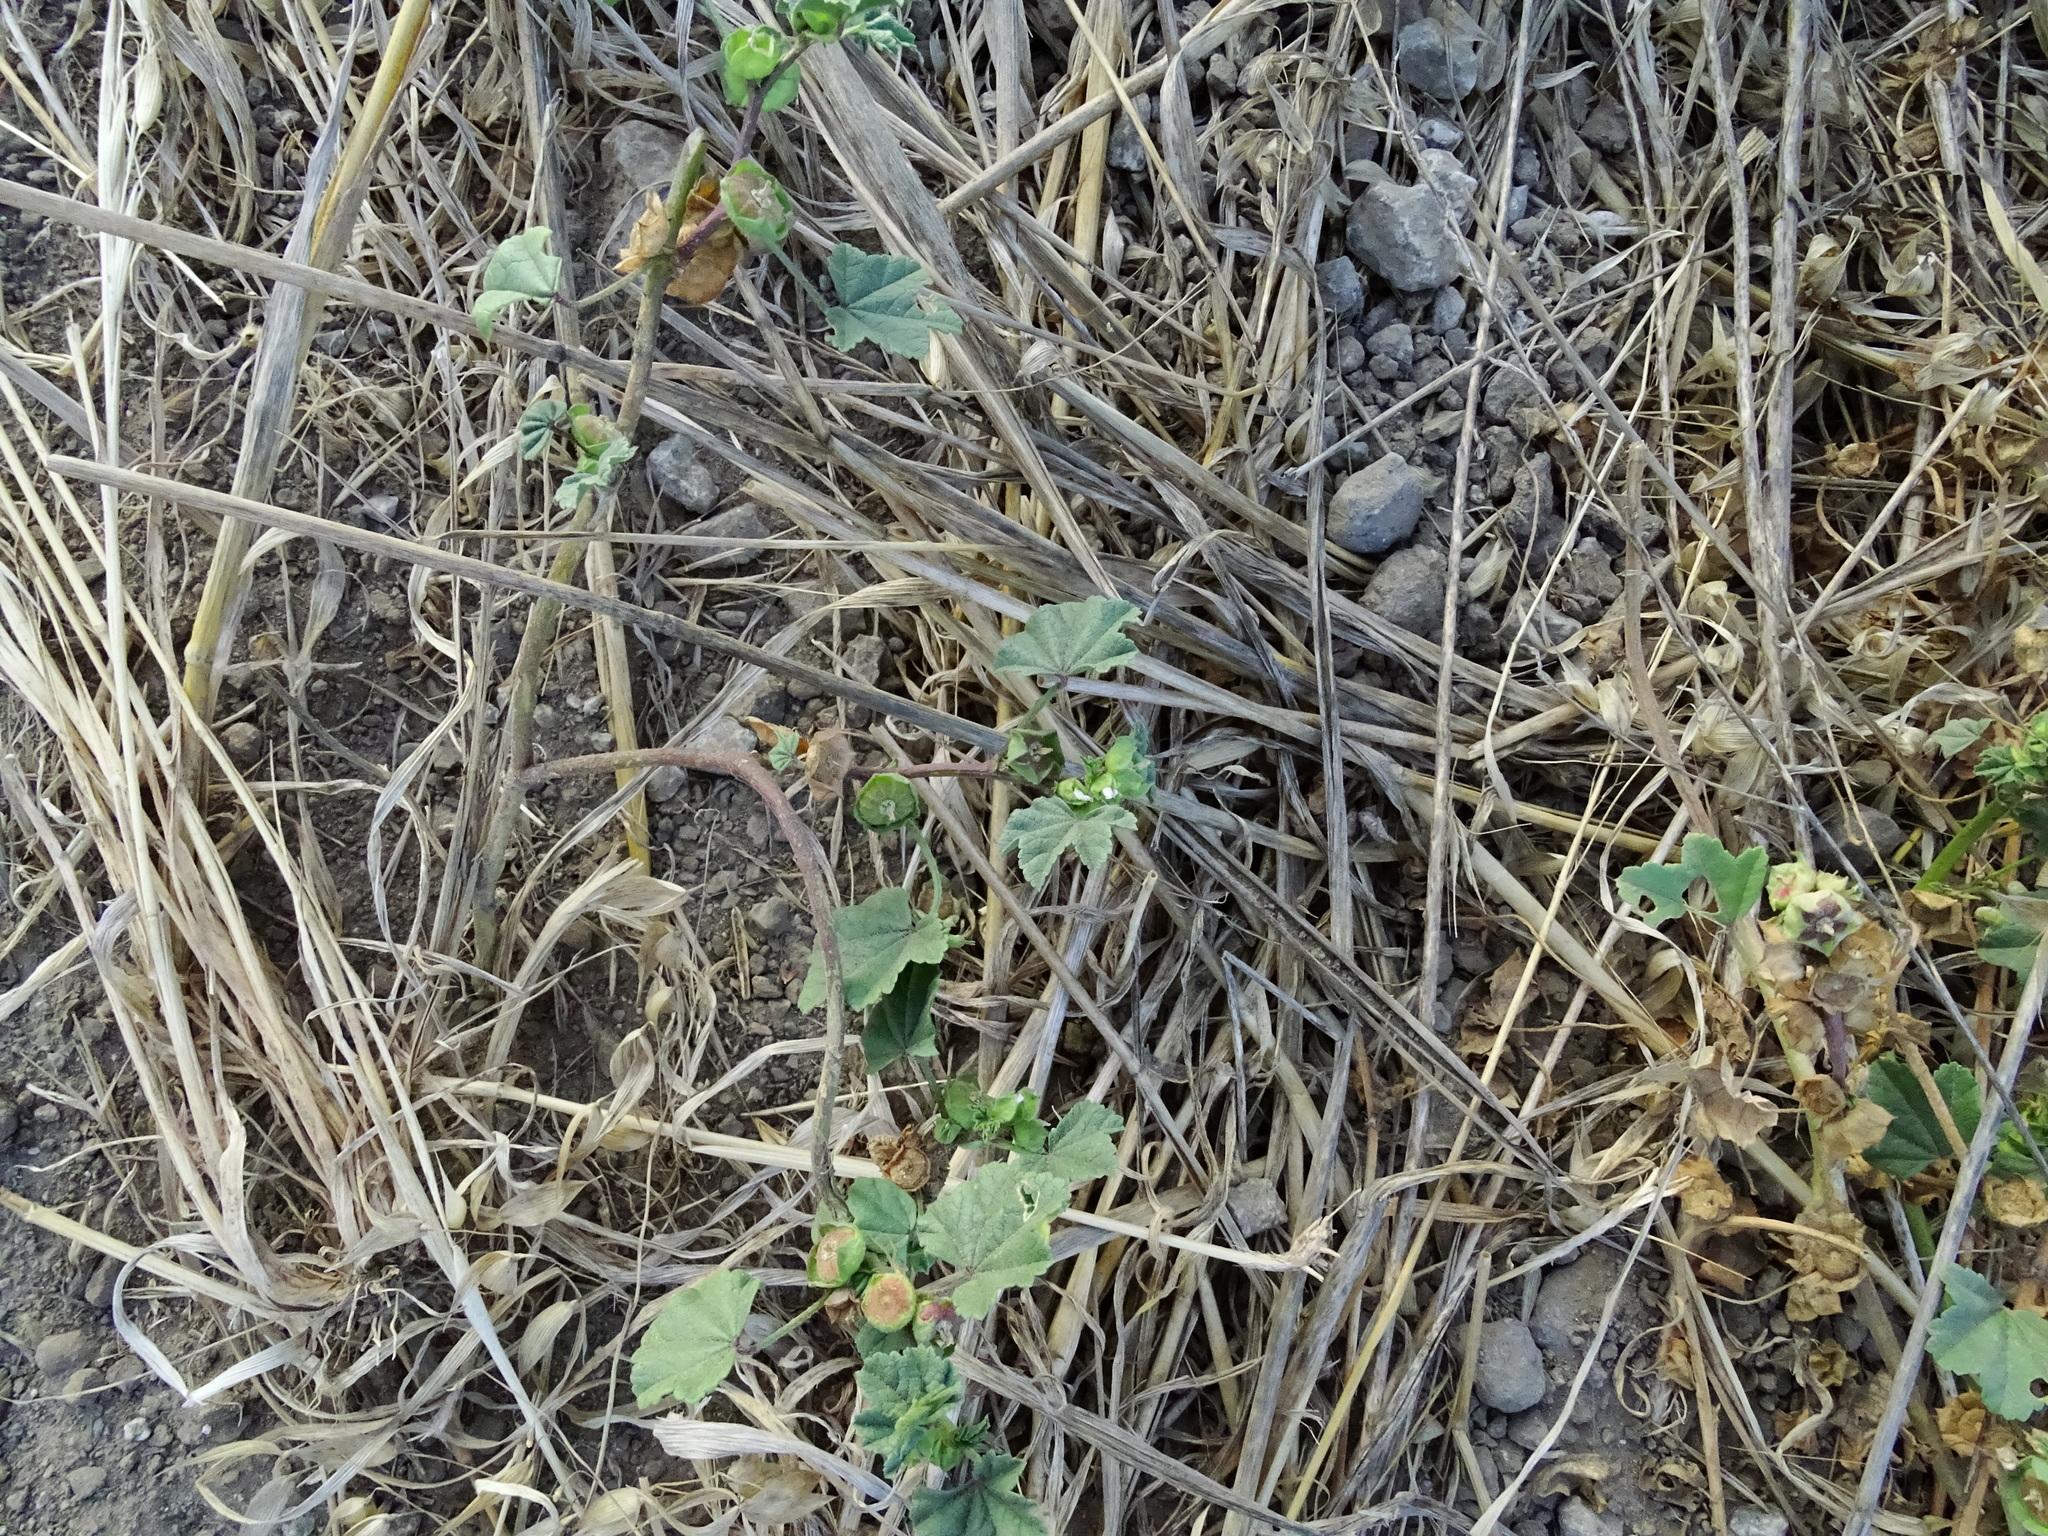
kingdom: Plantae
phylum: Tracheophyta
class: Magnoliopsida
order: Malvales
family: Malvaceae
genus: Malva
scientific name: Malva parviflora
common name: Least mallow
